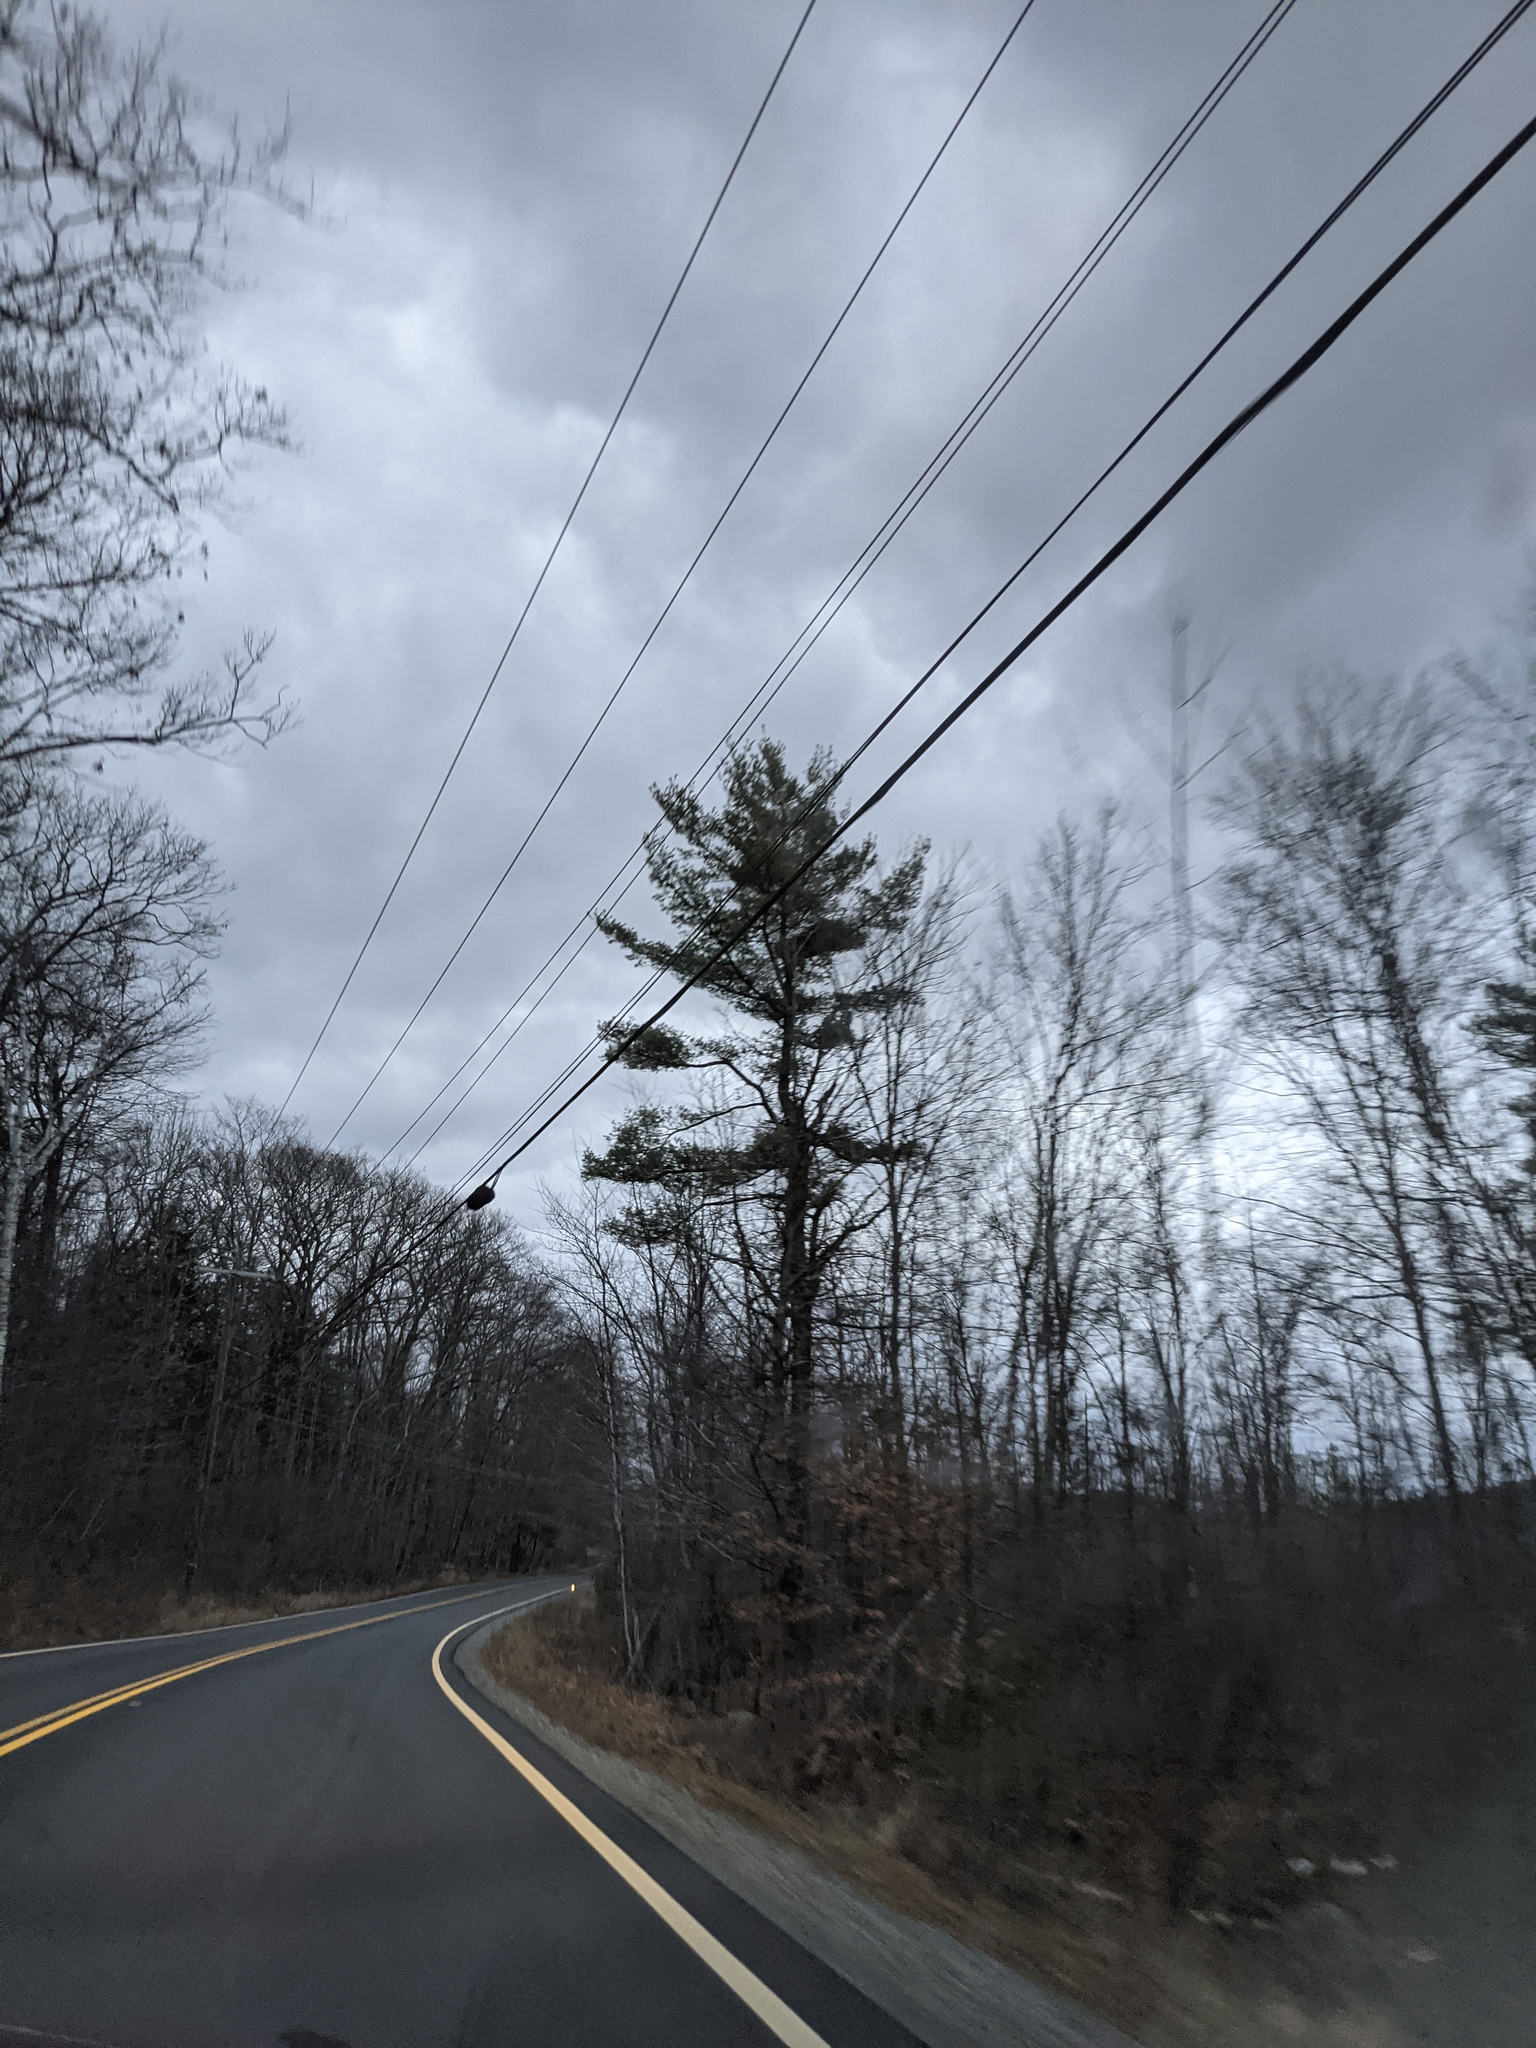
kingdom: Plantae
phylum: Tracheophyta
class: Pinopsida
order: Pinales
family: Pinaceae
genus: Pinus
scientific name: Pinus strobus
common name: Weymouth pine
